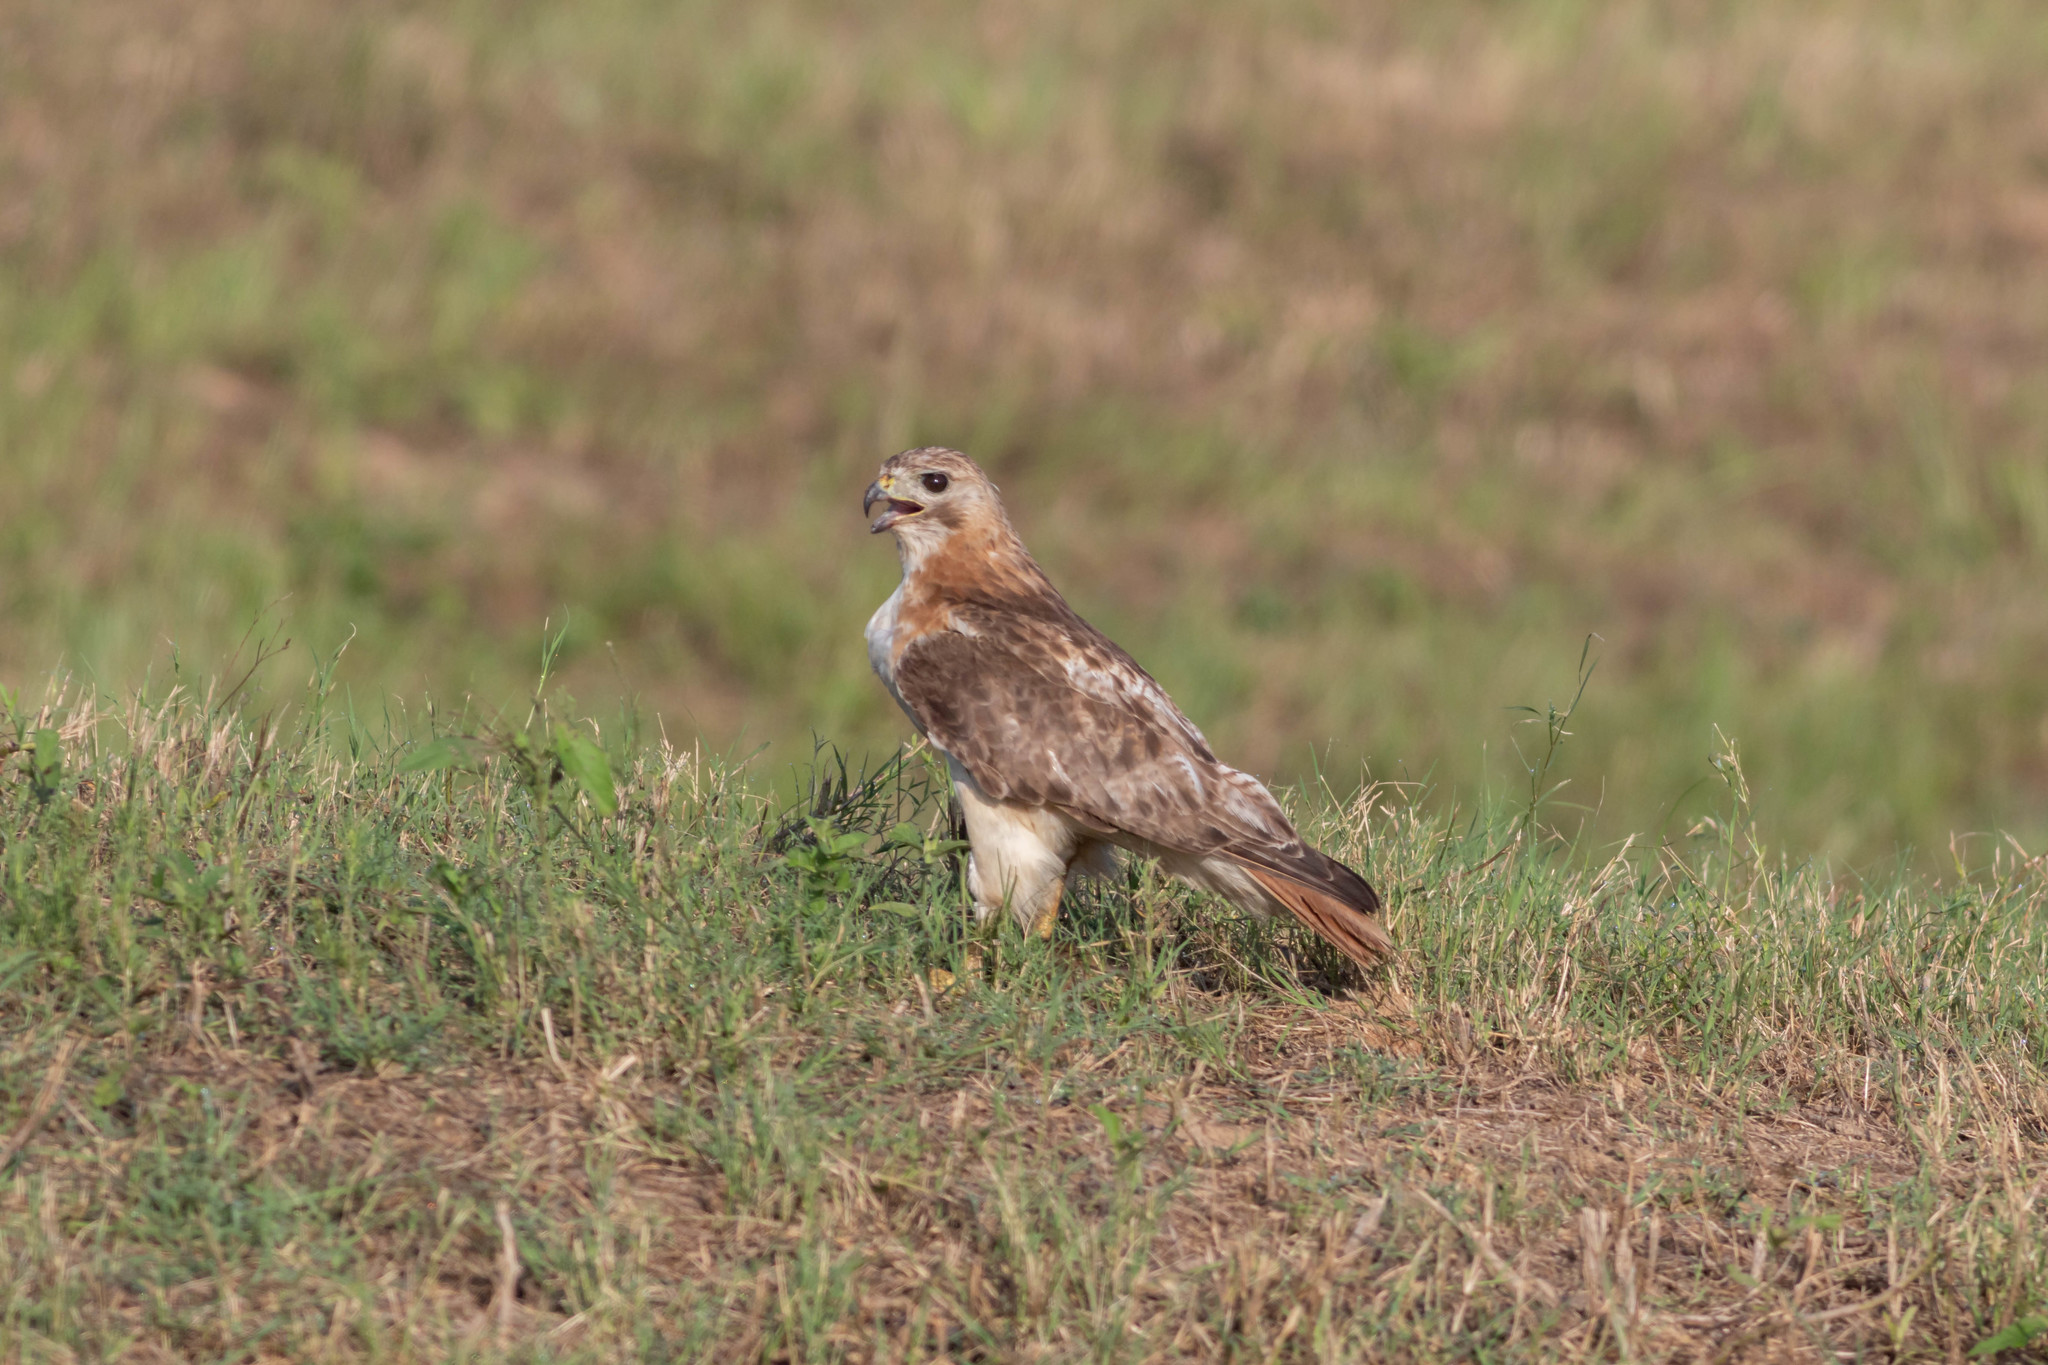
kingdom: Animalia
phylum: Chordata
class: Aves
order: Accipitriformes
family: Accipitridae
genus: Buteo
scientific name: Buteo jamaicensis
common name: Red-tailed hawk
